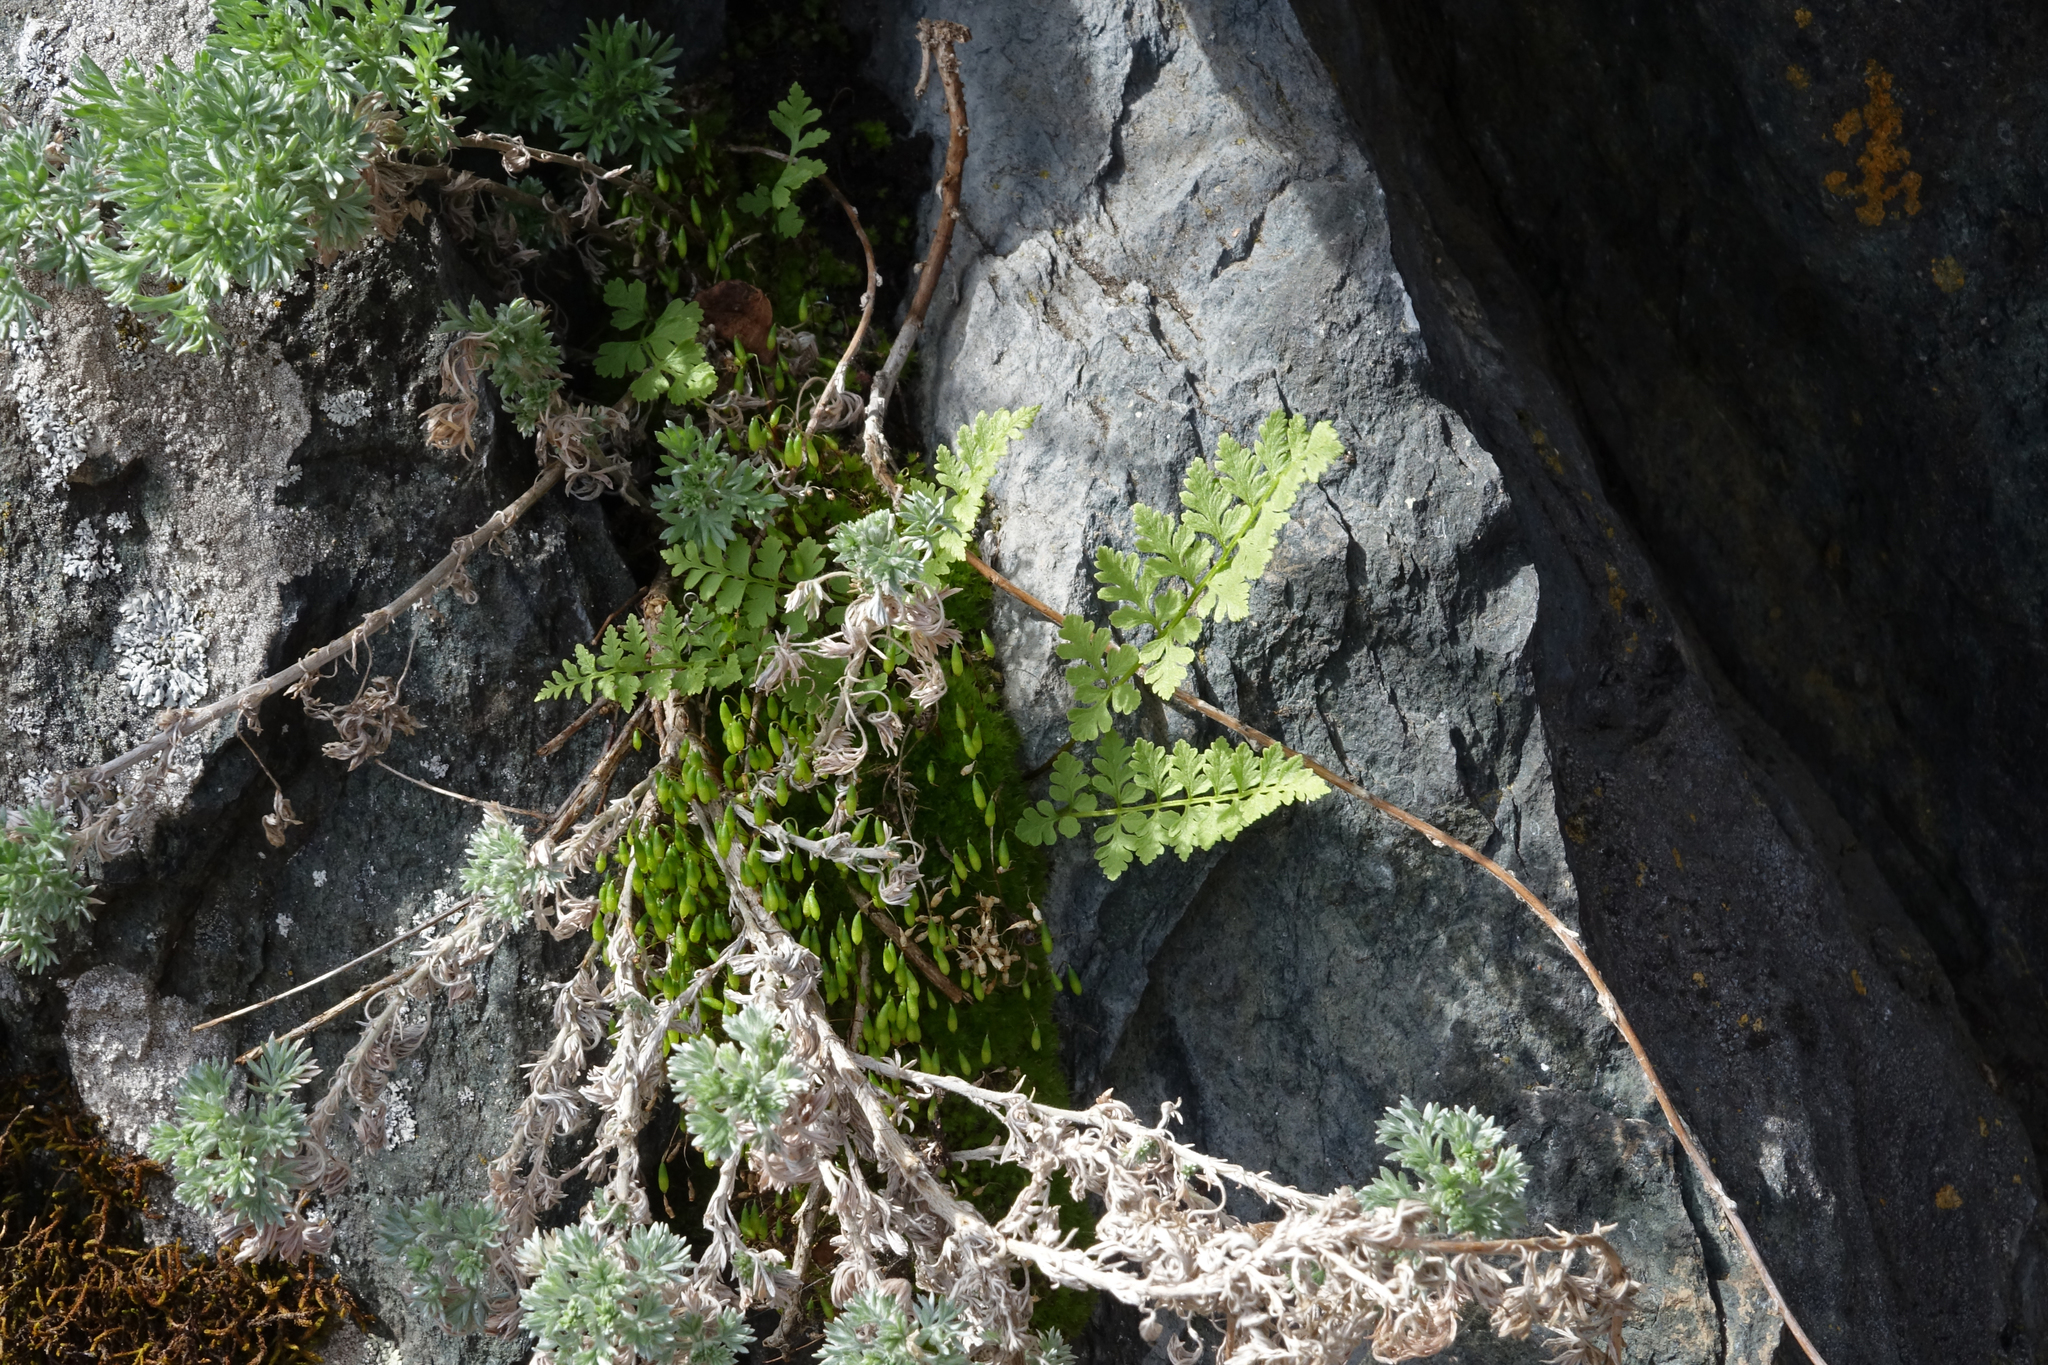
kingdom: Plantae
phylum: Tracheophyta
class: Polypodiopsida
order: Polypodiales
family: Cystopteridaceae
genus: Cystopteris
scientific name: Cystopteris fragilis
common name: Brittle bladder fern
